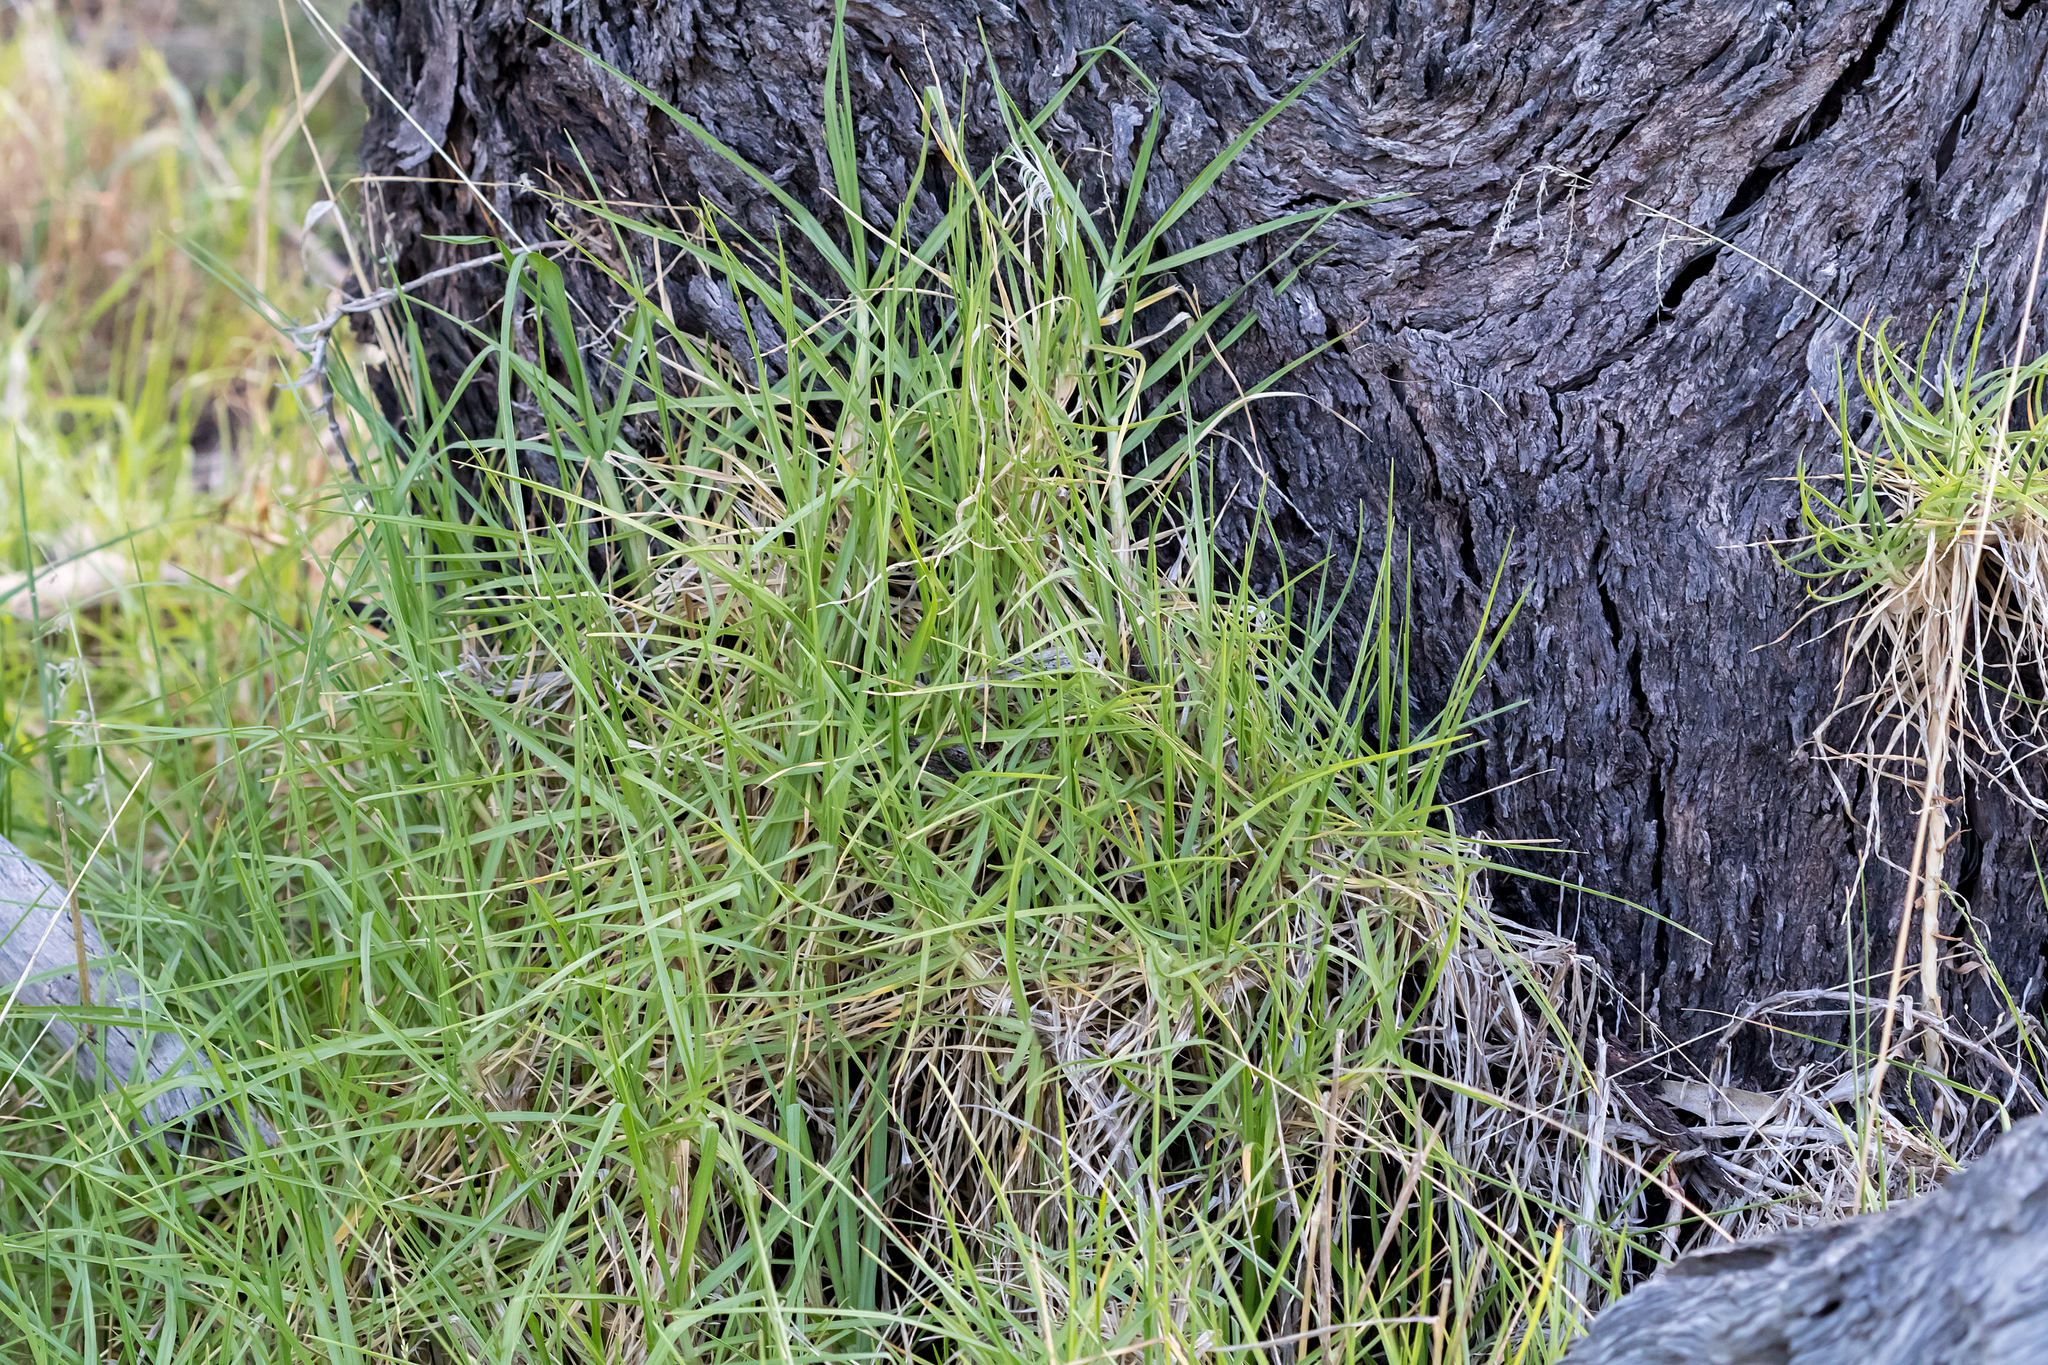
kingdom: Plantae
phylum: Tracheophyta
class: Liliopsida
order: Poales
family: Poaceae
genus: Cenchrus
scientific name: Cenchrus clandestinus
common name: Kikuyugrass
